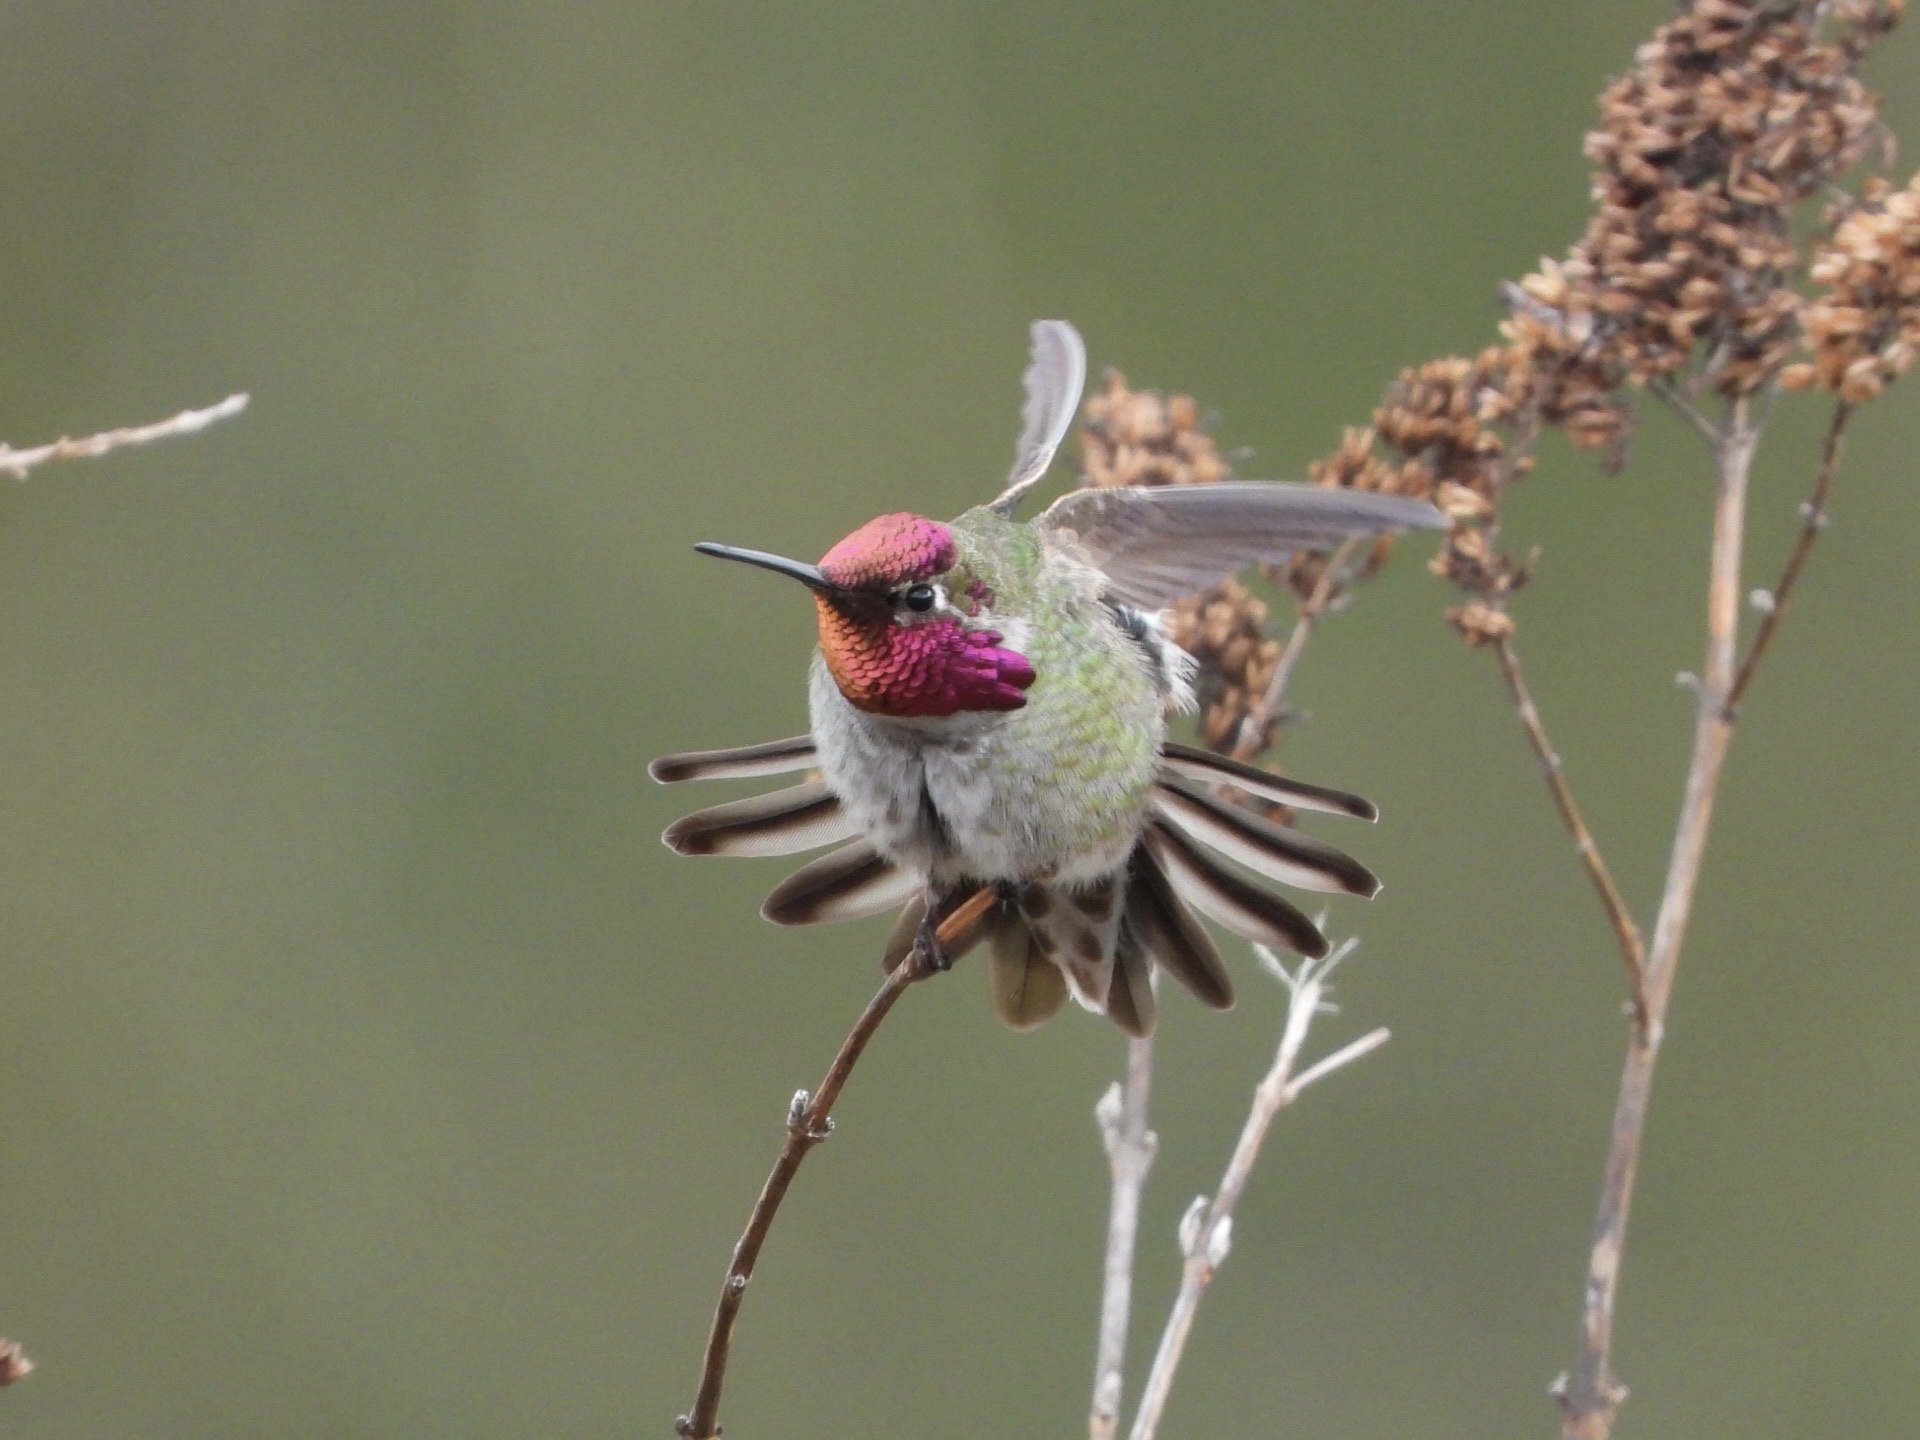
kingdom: Animalia
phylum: Chordata
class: Aves
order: Apodiformes
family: Trochilidae
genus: Calypte
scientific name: Calypte anna
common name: Anna's hummingbird
